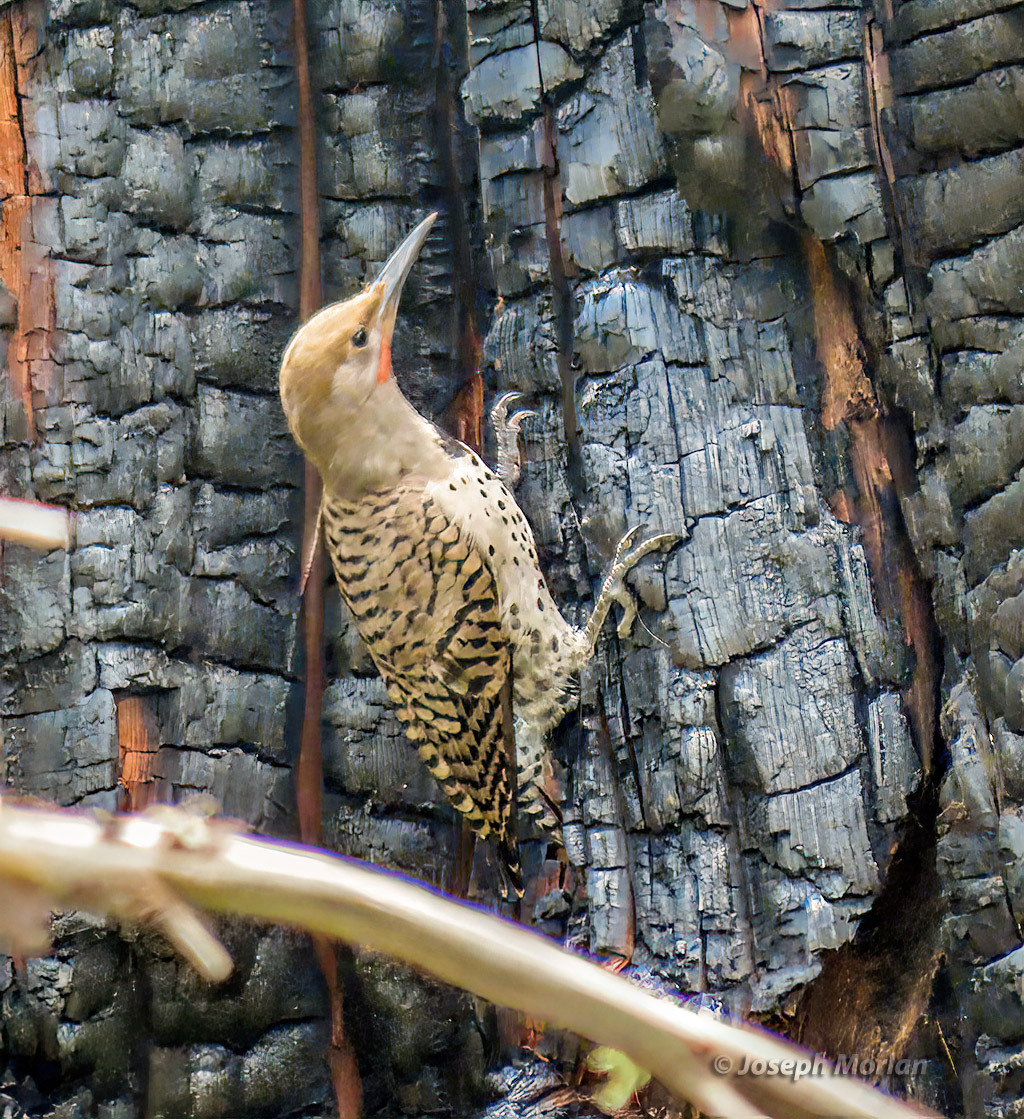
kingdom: Animalia
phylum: Chordata
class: Aves
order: Piciformes
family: Picidae
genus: Colaptes
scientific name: Colaptes auratus
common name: Northern flicker
